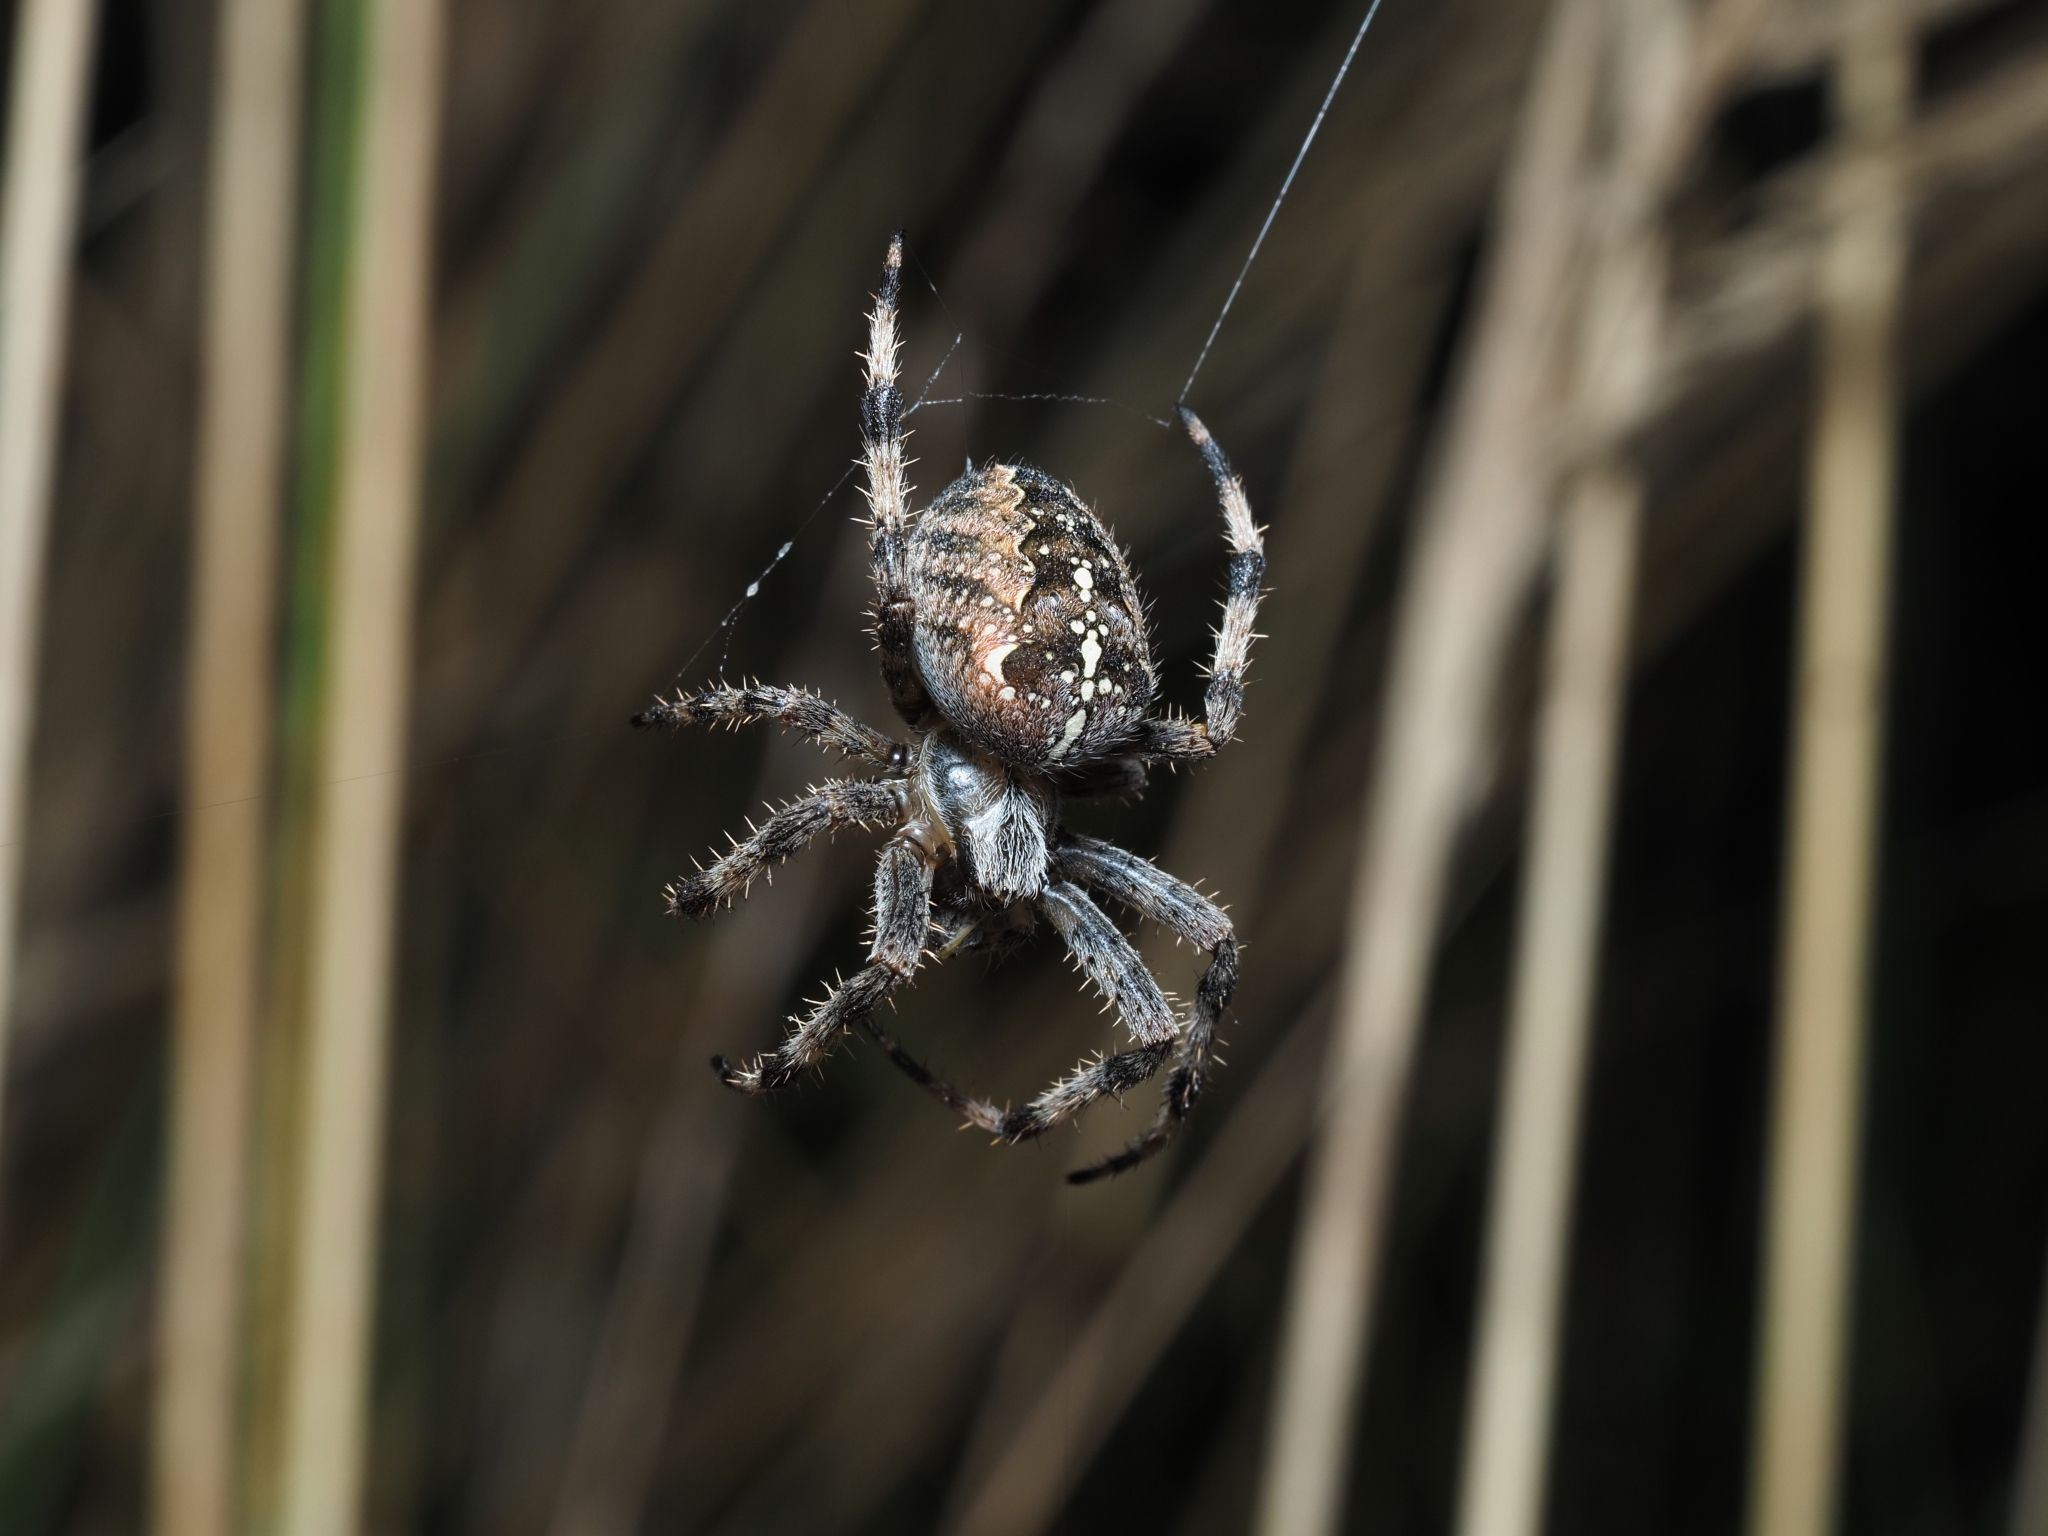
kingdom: Animalia
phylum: Arthropoda
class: Arachnida
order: Araneae
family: Araneidae
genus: Araneus
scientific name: Araneus diadematus
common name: Cross orbweaver
